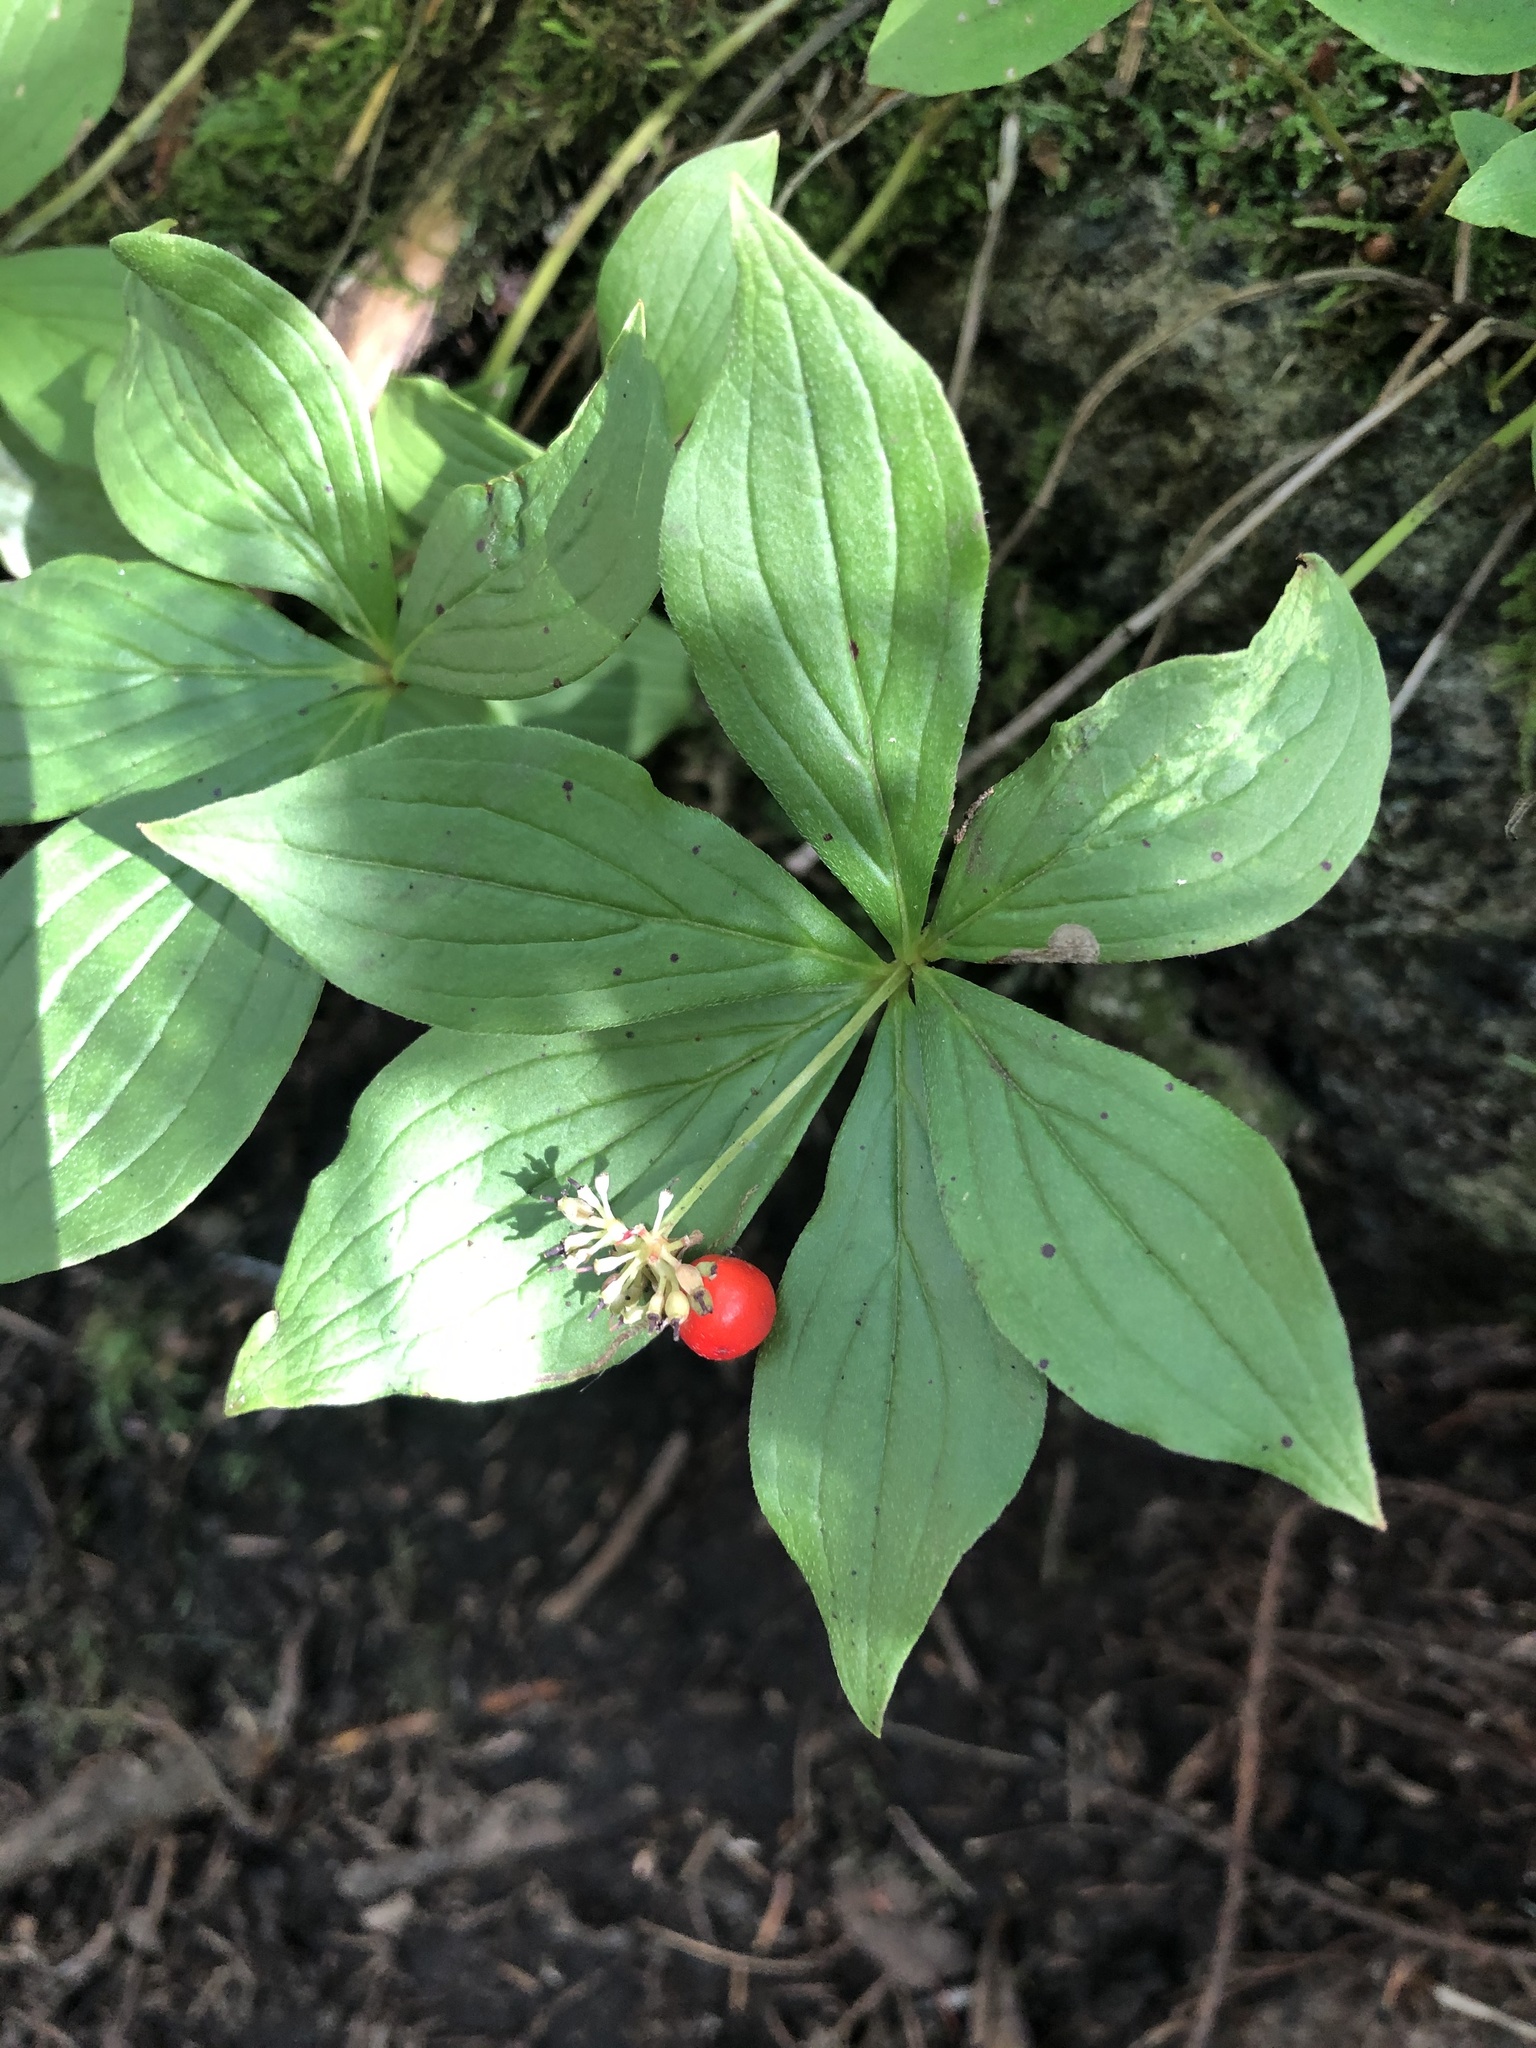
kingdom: Plantae
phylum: Tracheophyta
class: Magnoliopsida
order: Cornales
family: Cornaceae
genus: Cornus
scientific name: Cornus canadensis
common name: Creeping dogwood
